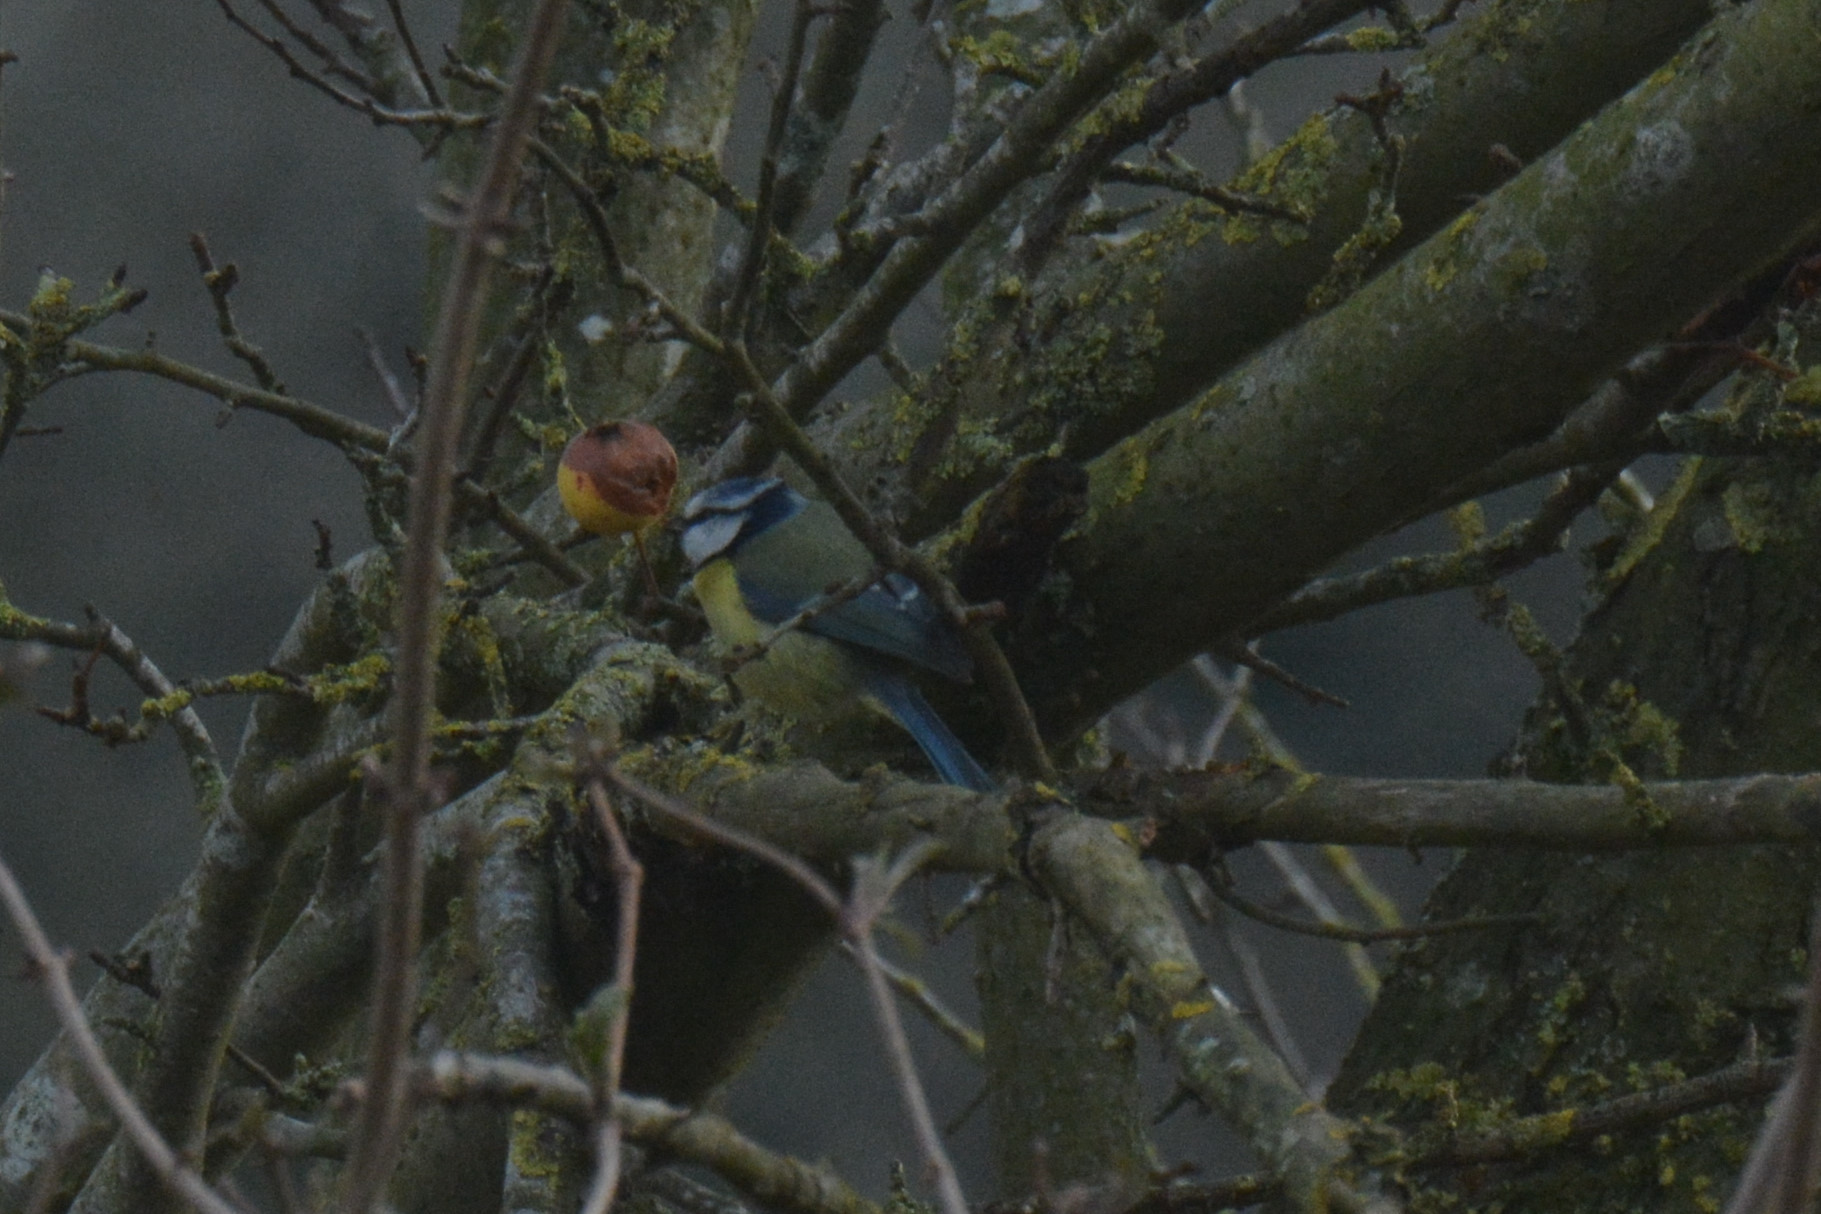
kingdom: Animalia
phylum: Chordata
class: Aves
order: Passeriformes
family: Paridae
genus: Cyanistes
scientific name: Cyanistes caeruleus
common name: Eurasian blue tit
